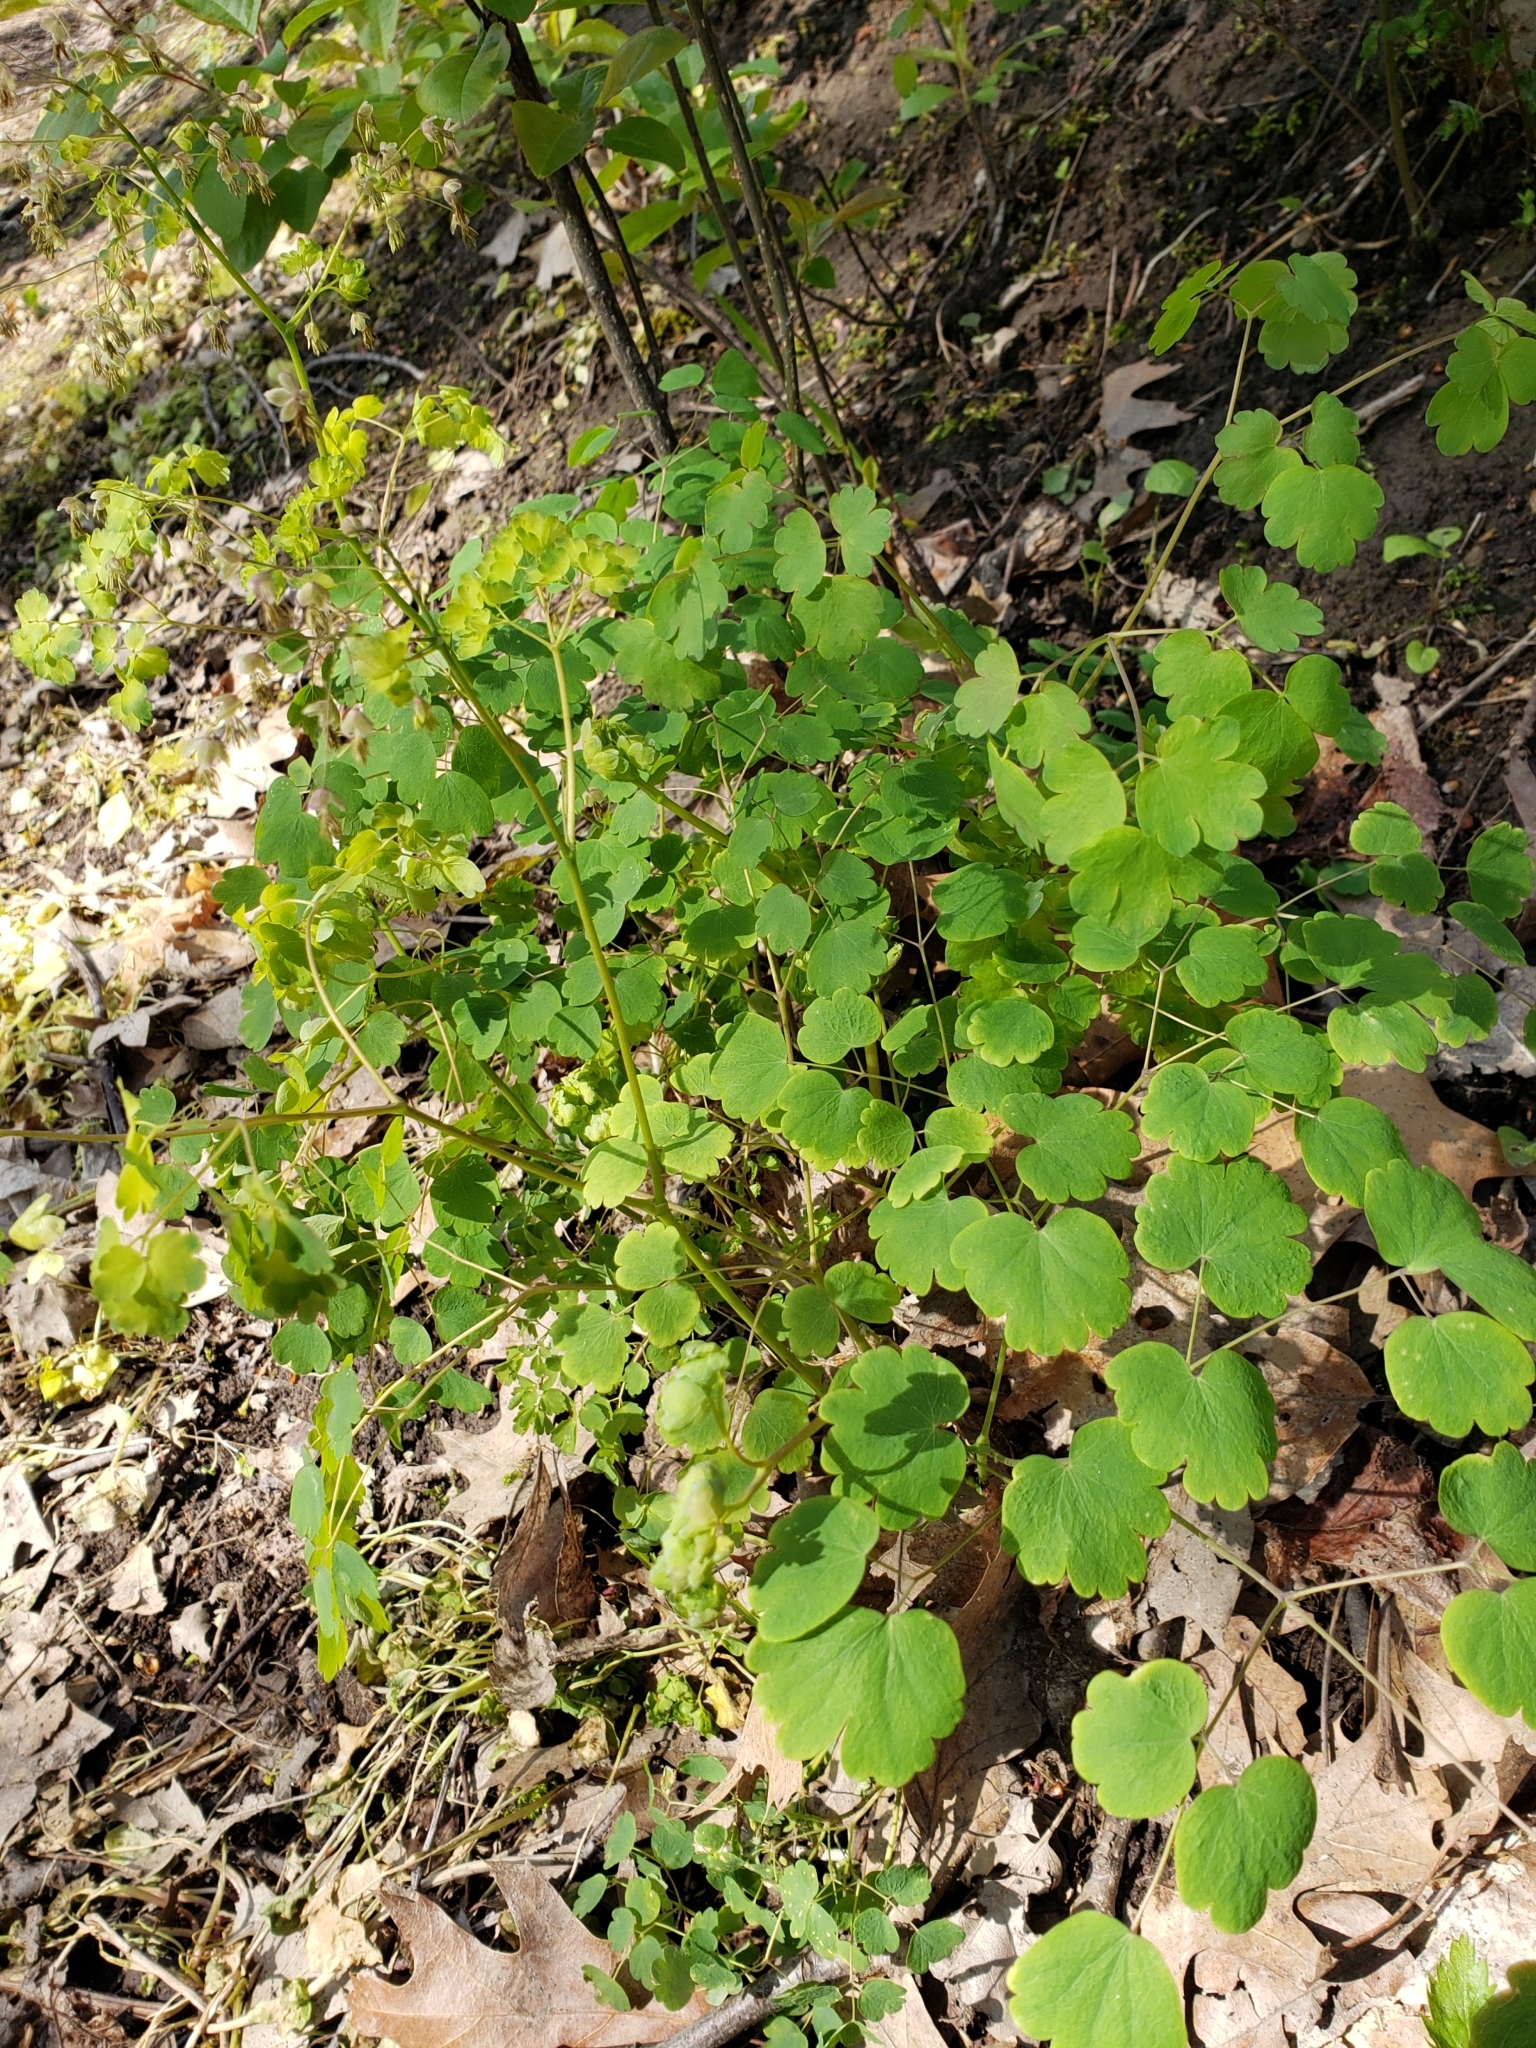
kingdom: Plantae
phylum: Tracheophyta
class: Magnoliopsida
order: Ranunculales
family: Ranunculaceae
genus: Thalictrum
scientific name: Thalictrum dioicum
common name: Early meadow-rue
